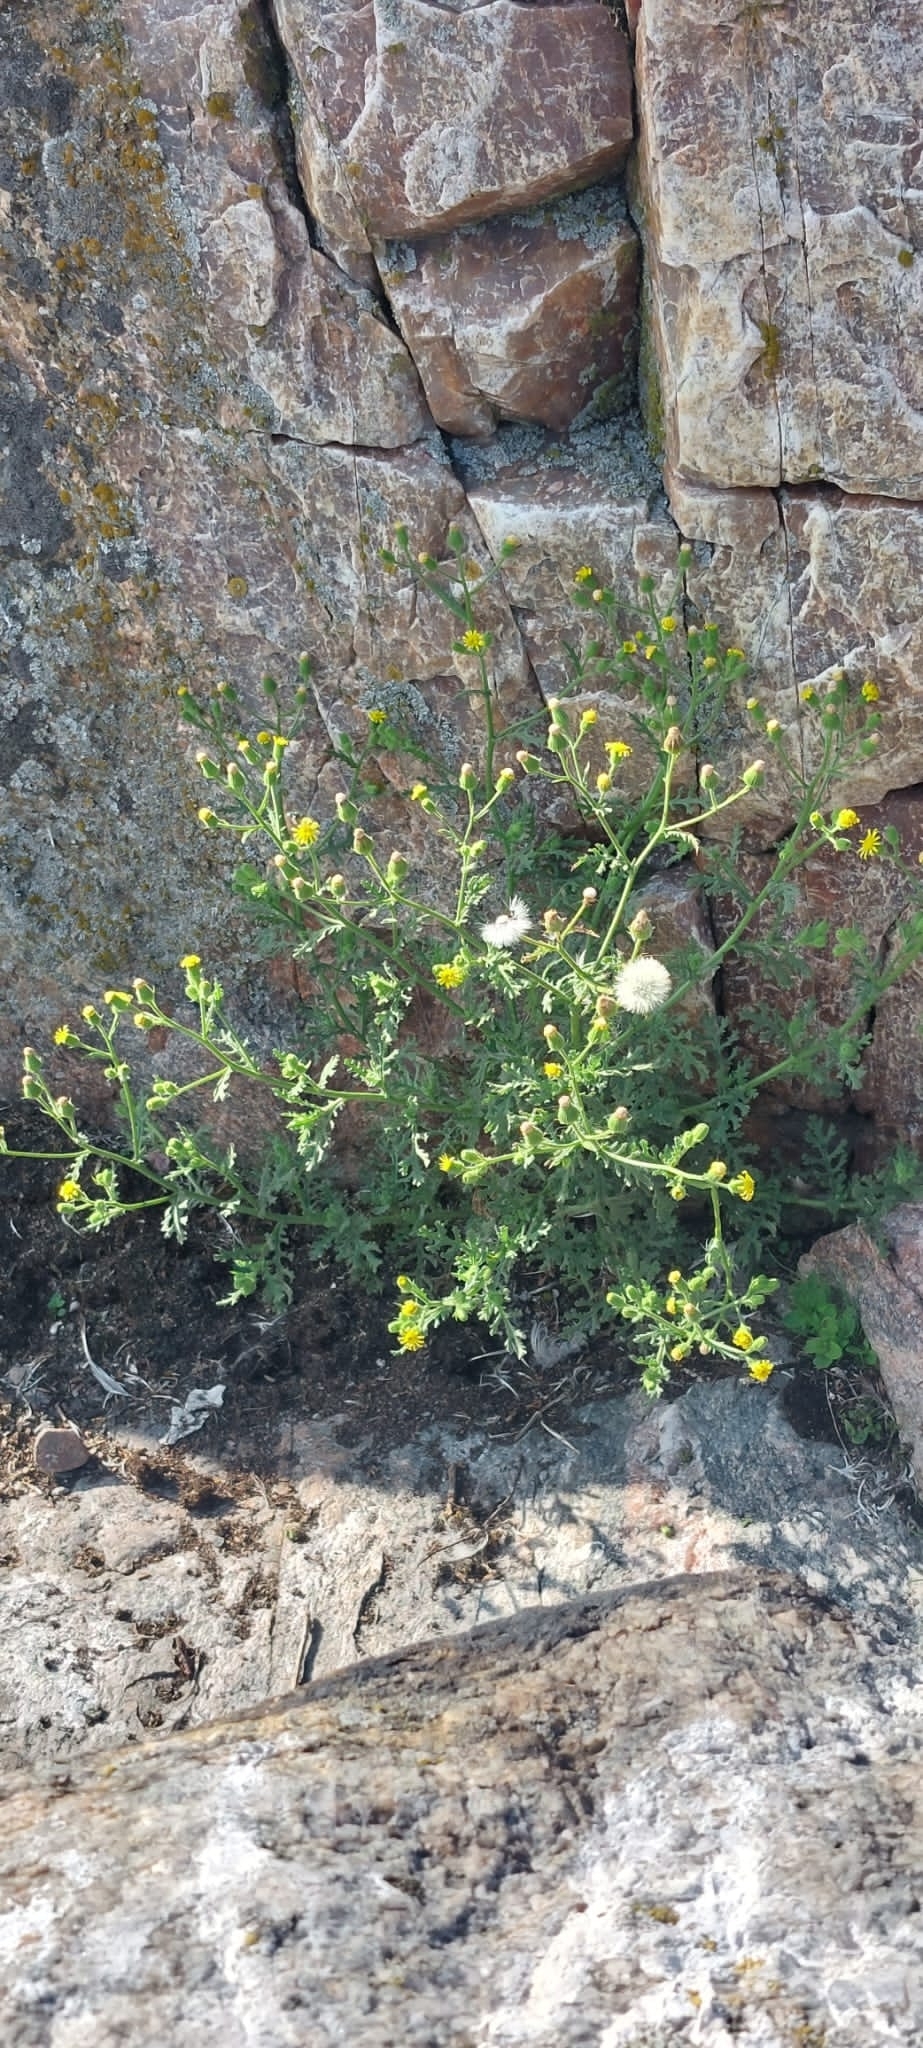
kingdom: Plantae
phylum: Tracheophyta
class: Magnoliopsida
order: Asterales
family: Asteraceae
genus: Senecio
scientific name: Senecio viscosus
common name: Sticky groundsel
